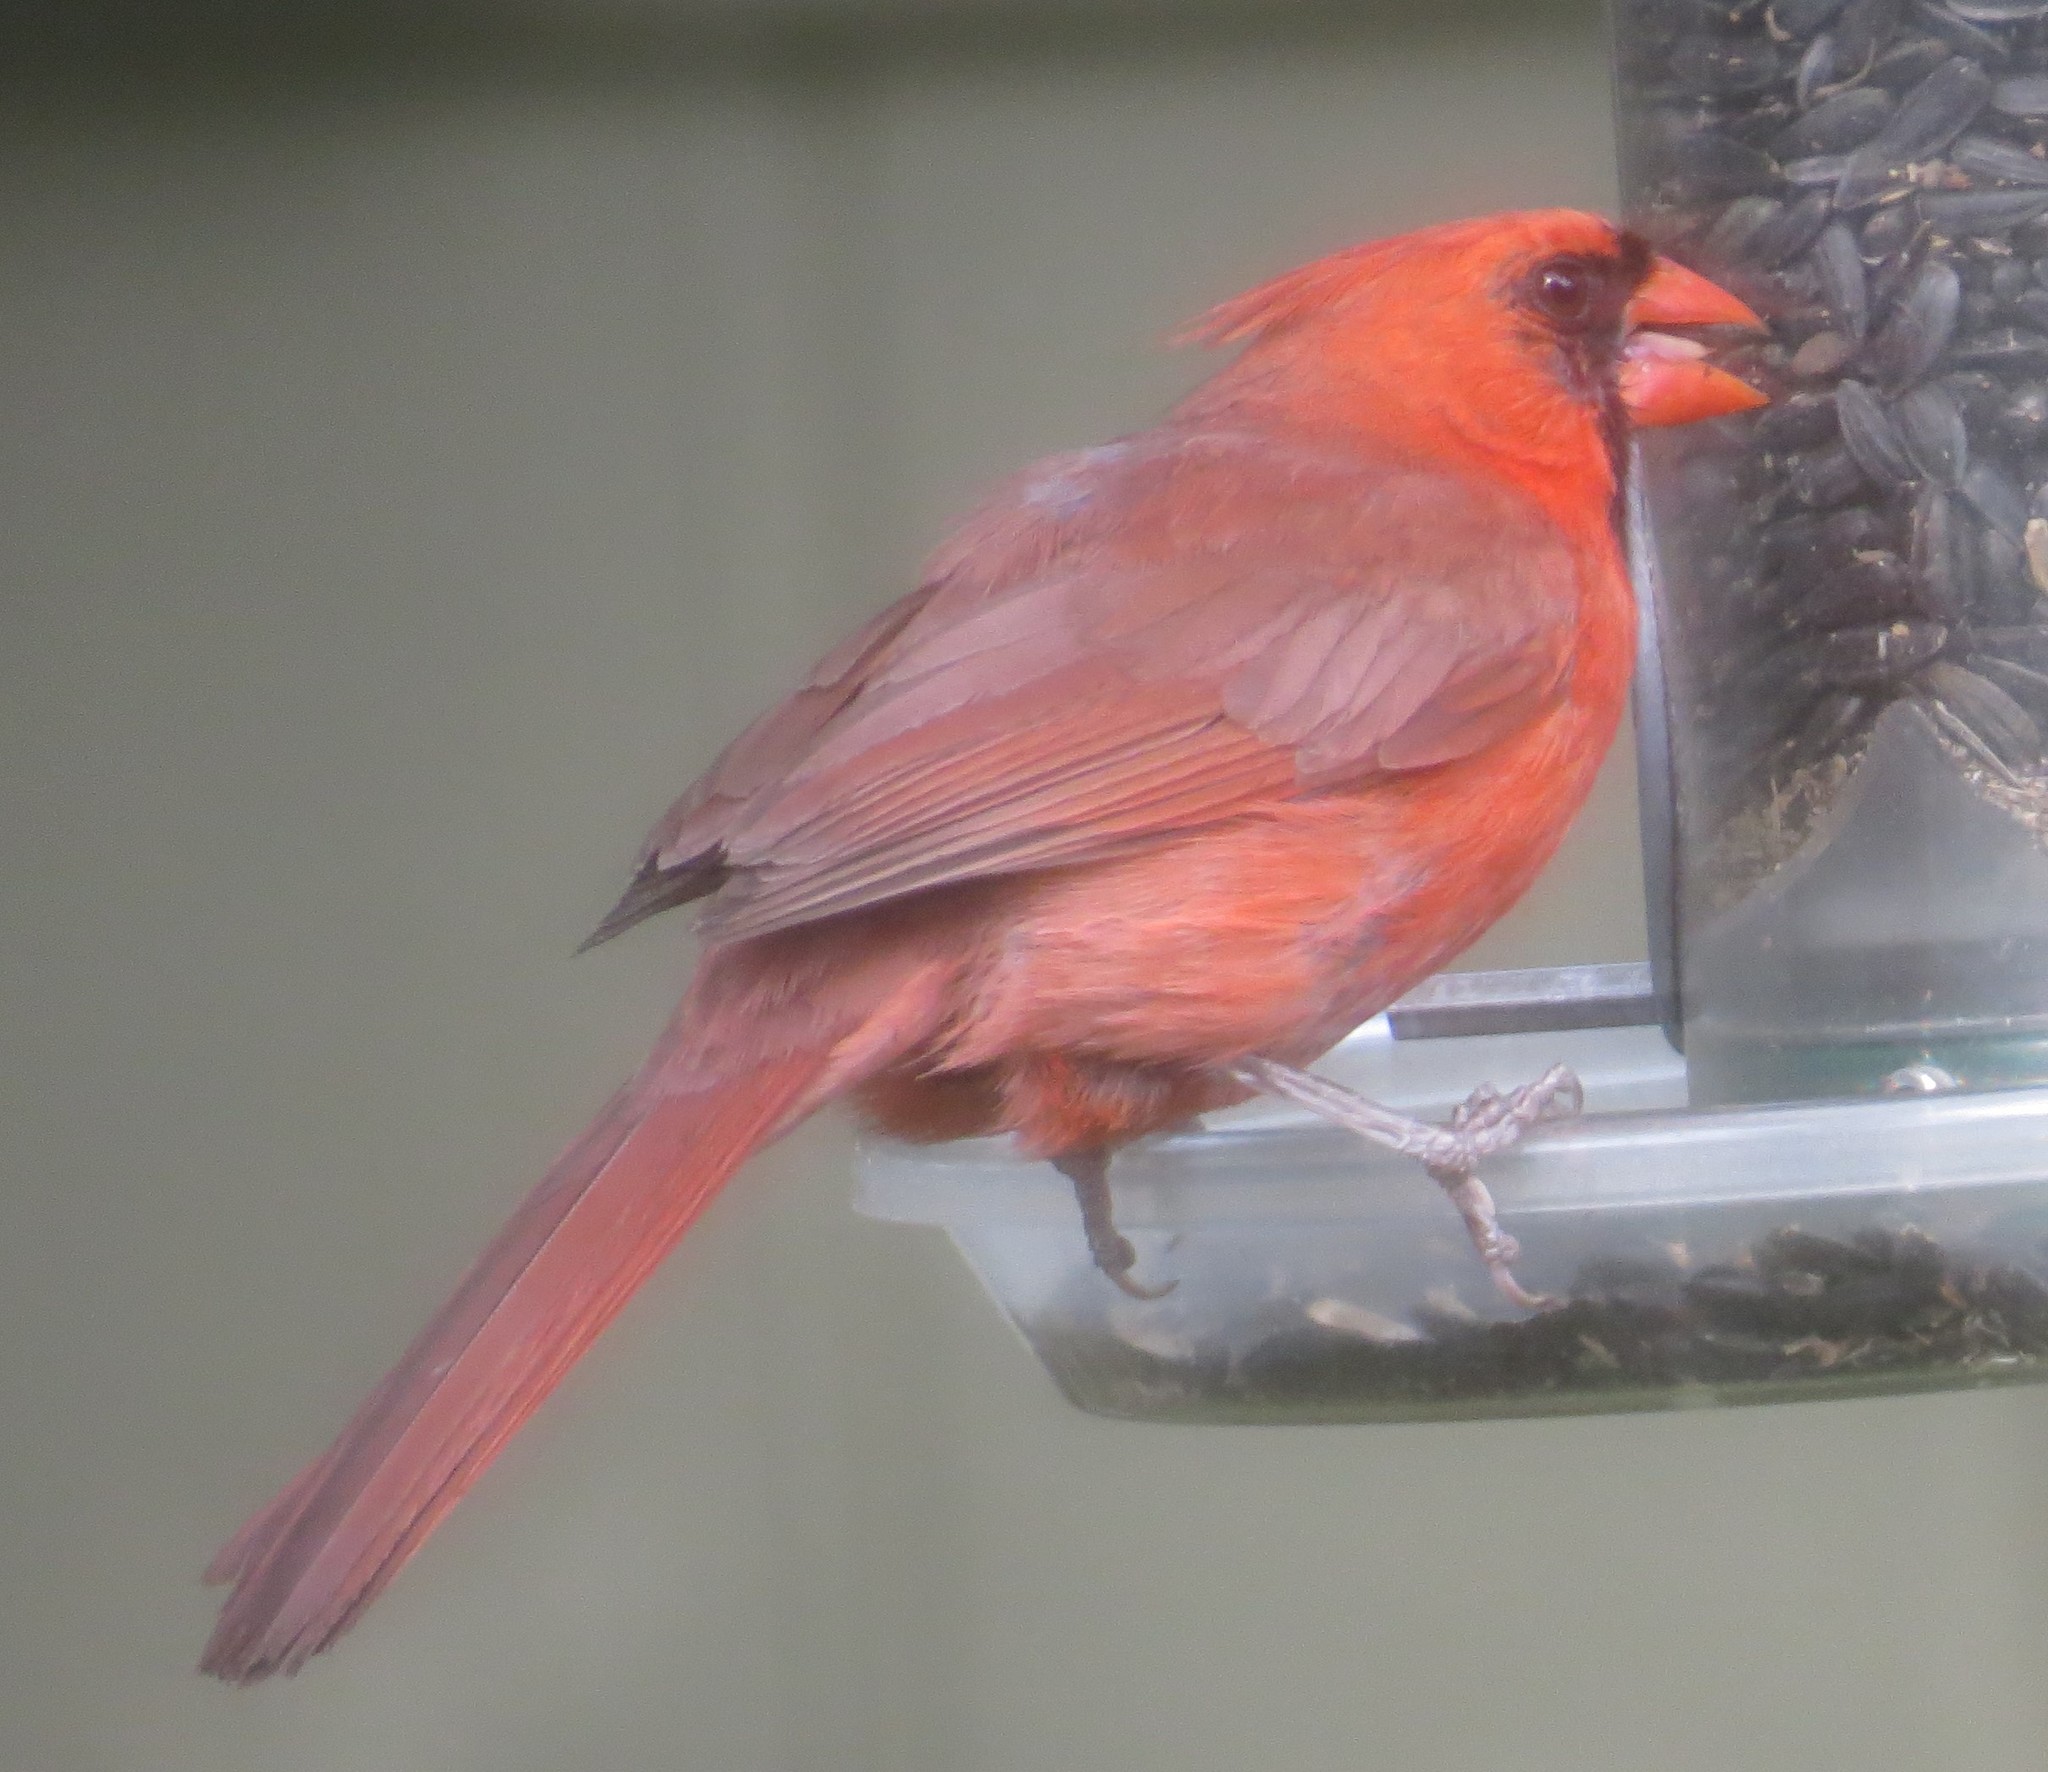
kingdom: Animalia
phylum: Chordata
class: Aves
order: Passeriformes
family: Cardinalidae
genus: Cardinalis
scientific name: Cardinalis cardinalis
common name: Northern cardinal
